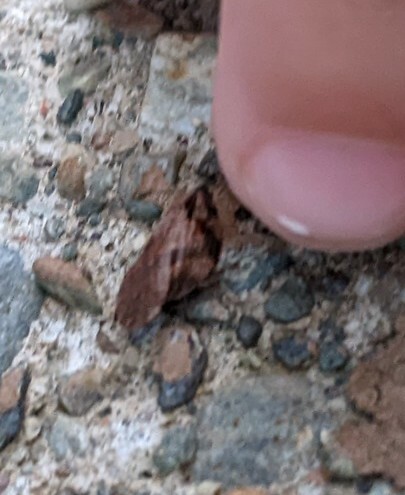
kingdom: Animalia
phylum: Arthropoda
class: Insecta
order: Hemiptera
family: Aphrophoridae
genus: Lepyronia
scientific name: Lepyronia quadrangularis
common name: Diamond-backed spittlebug
